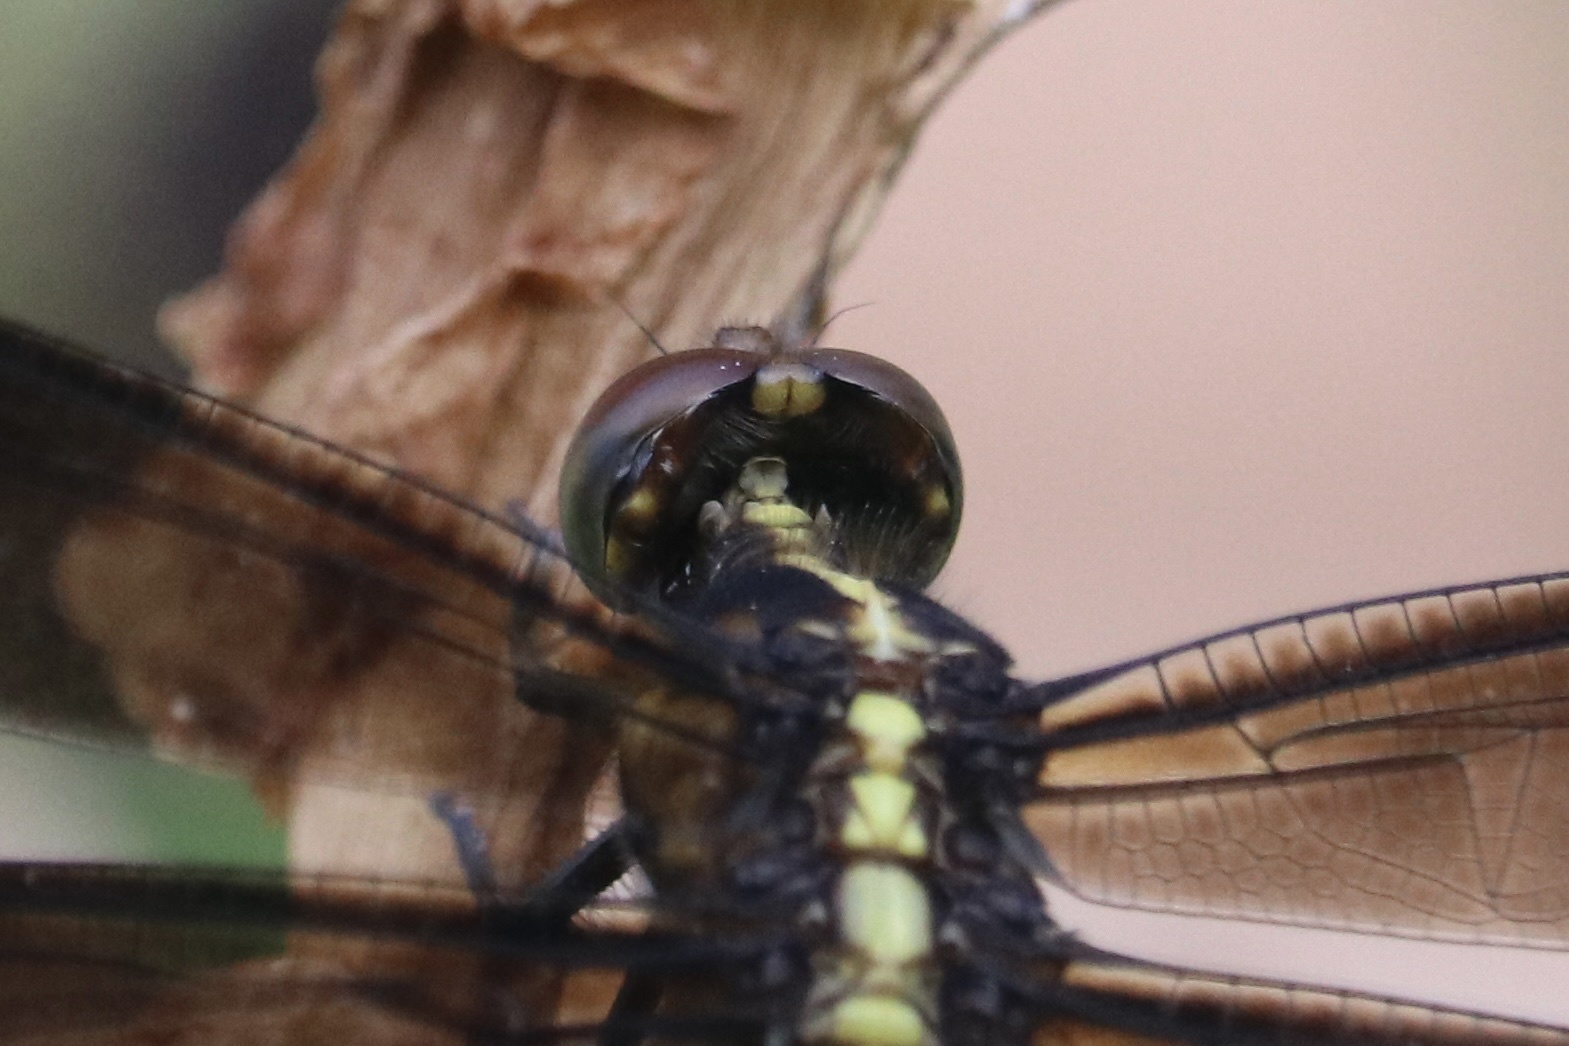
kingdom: Animalia
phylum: Arthropoda
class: Insecta
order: Odonata
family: Libellulidae
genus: Libellula
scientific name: Libellula luctuosa
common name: Widow skimmer
